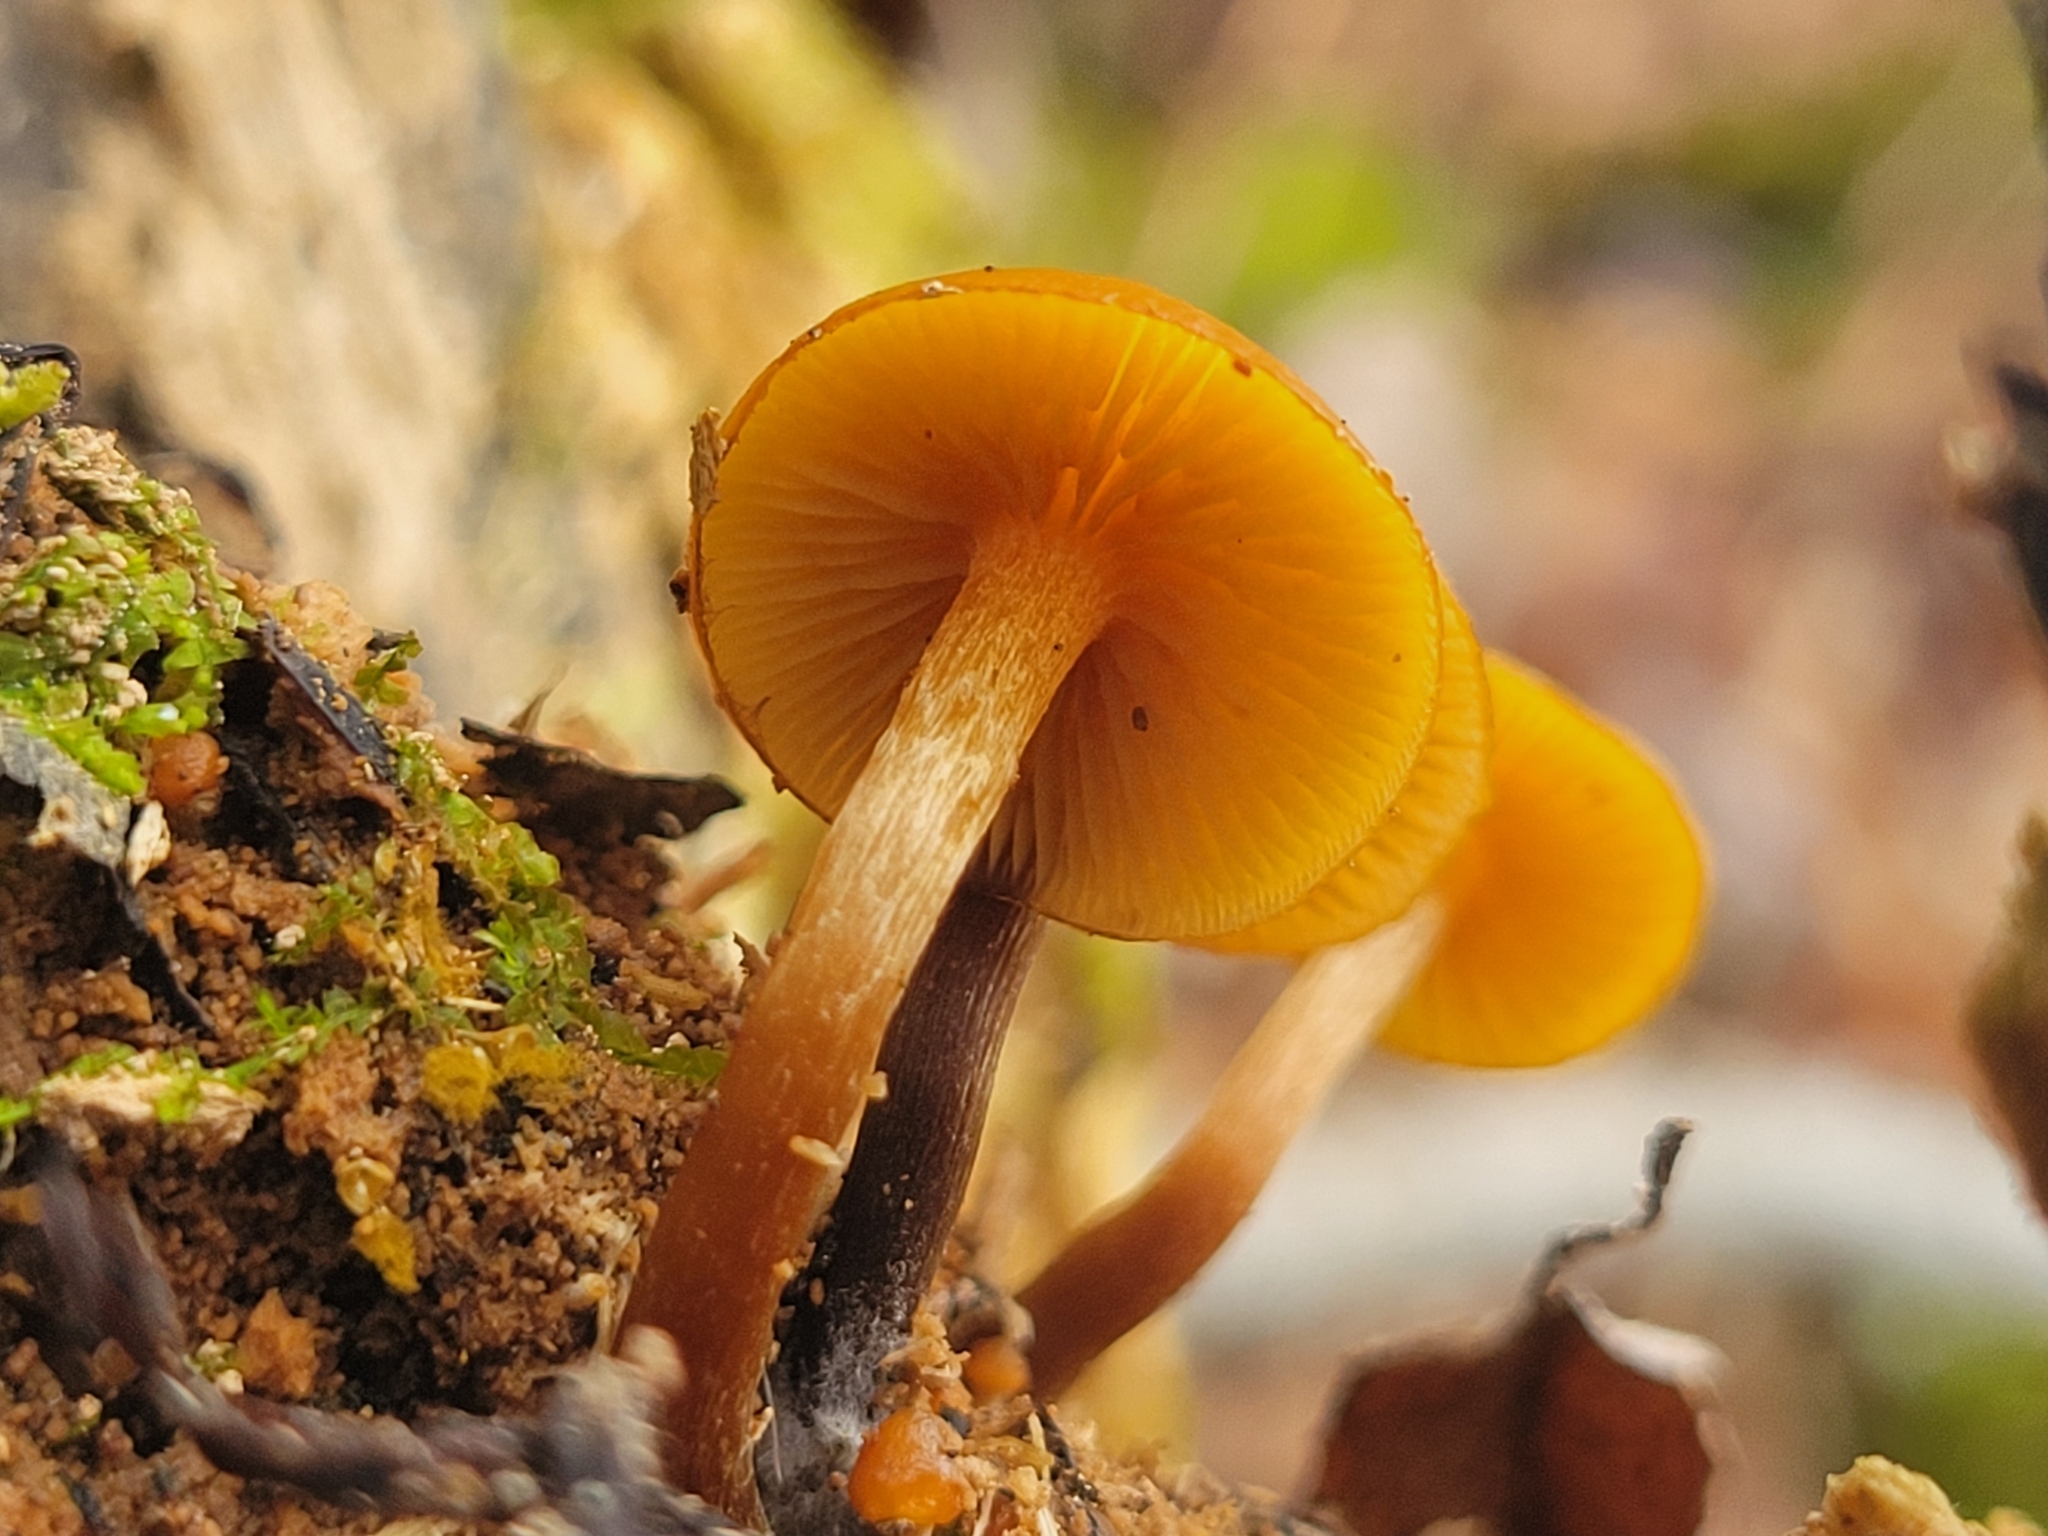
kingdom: Fungi
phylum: Basidiomycota
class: Agaricomycetes
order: Agaricales
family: Hymenogastraceae
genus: Galerina
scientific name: Galerina marginata
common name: Funeral bell
